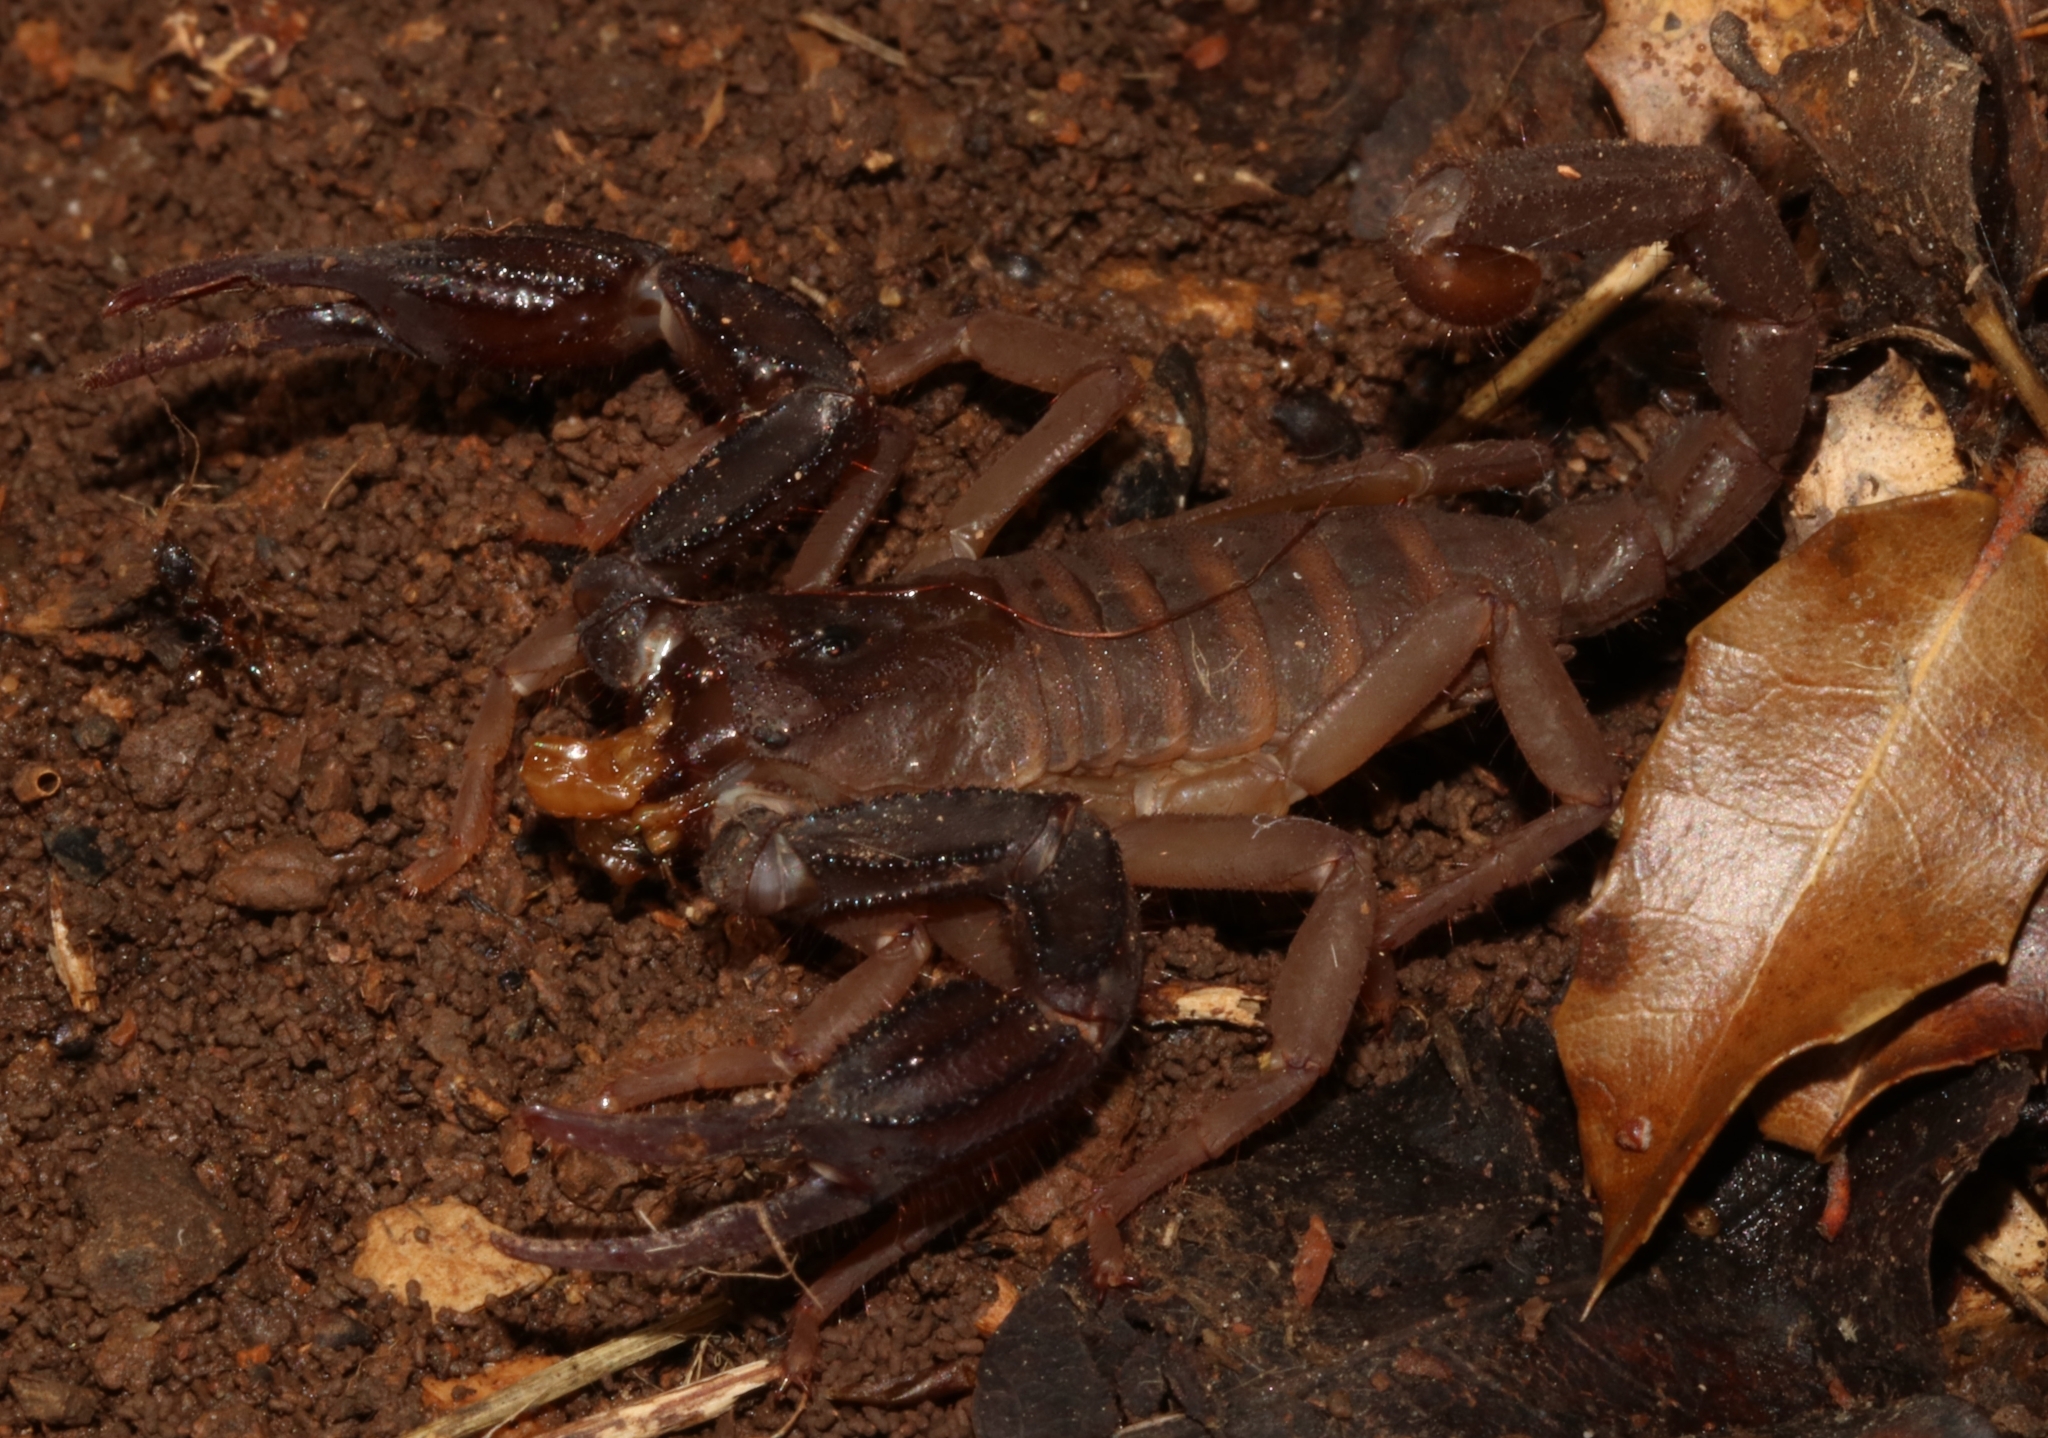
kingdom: Animalia
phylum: Arthropoda
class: Arachnida
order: Scorpiones
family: Iuridae
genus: Iurus
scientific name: Iurus dufoureius
